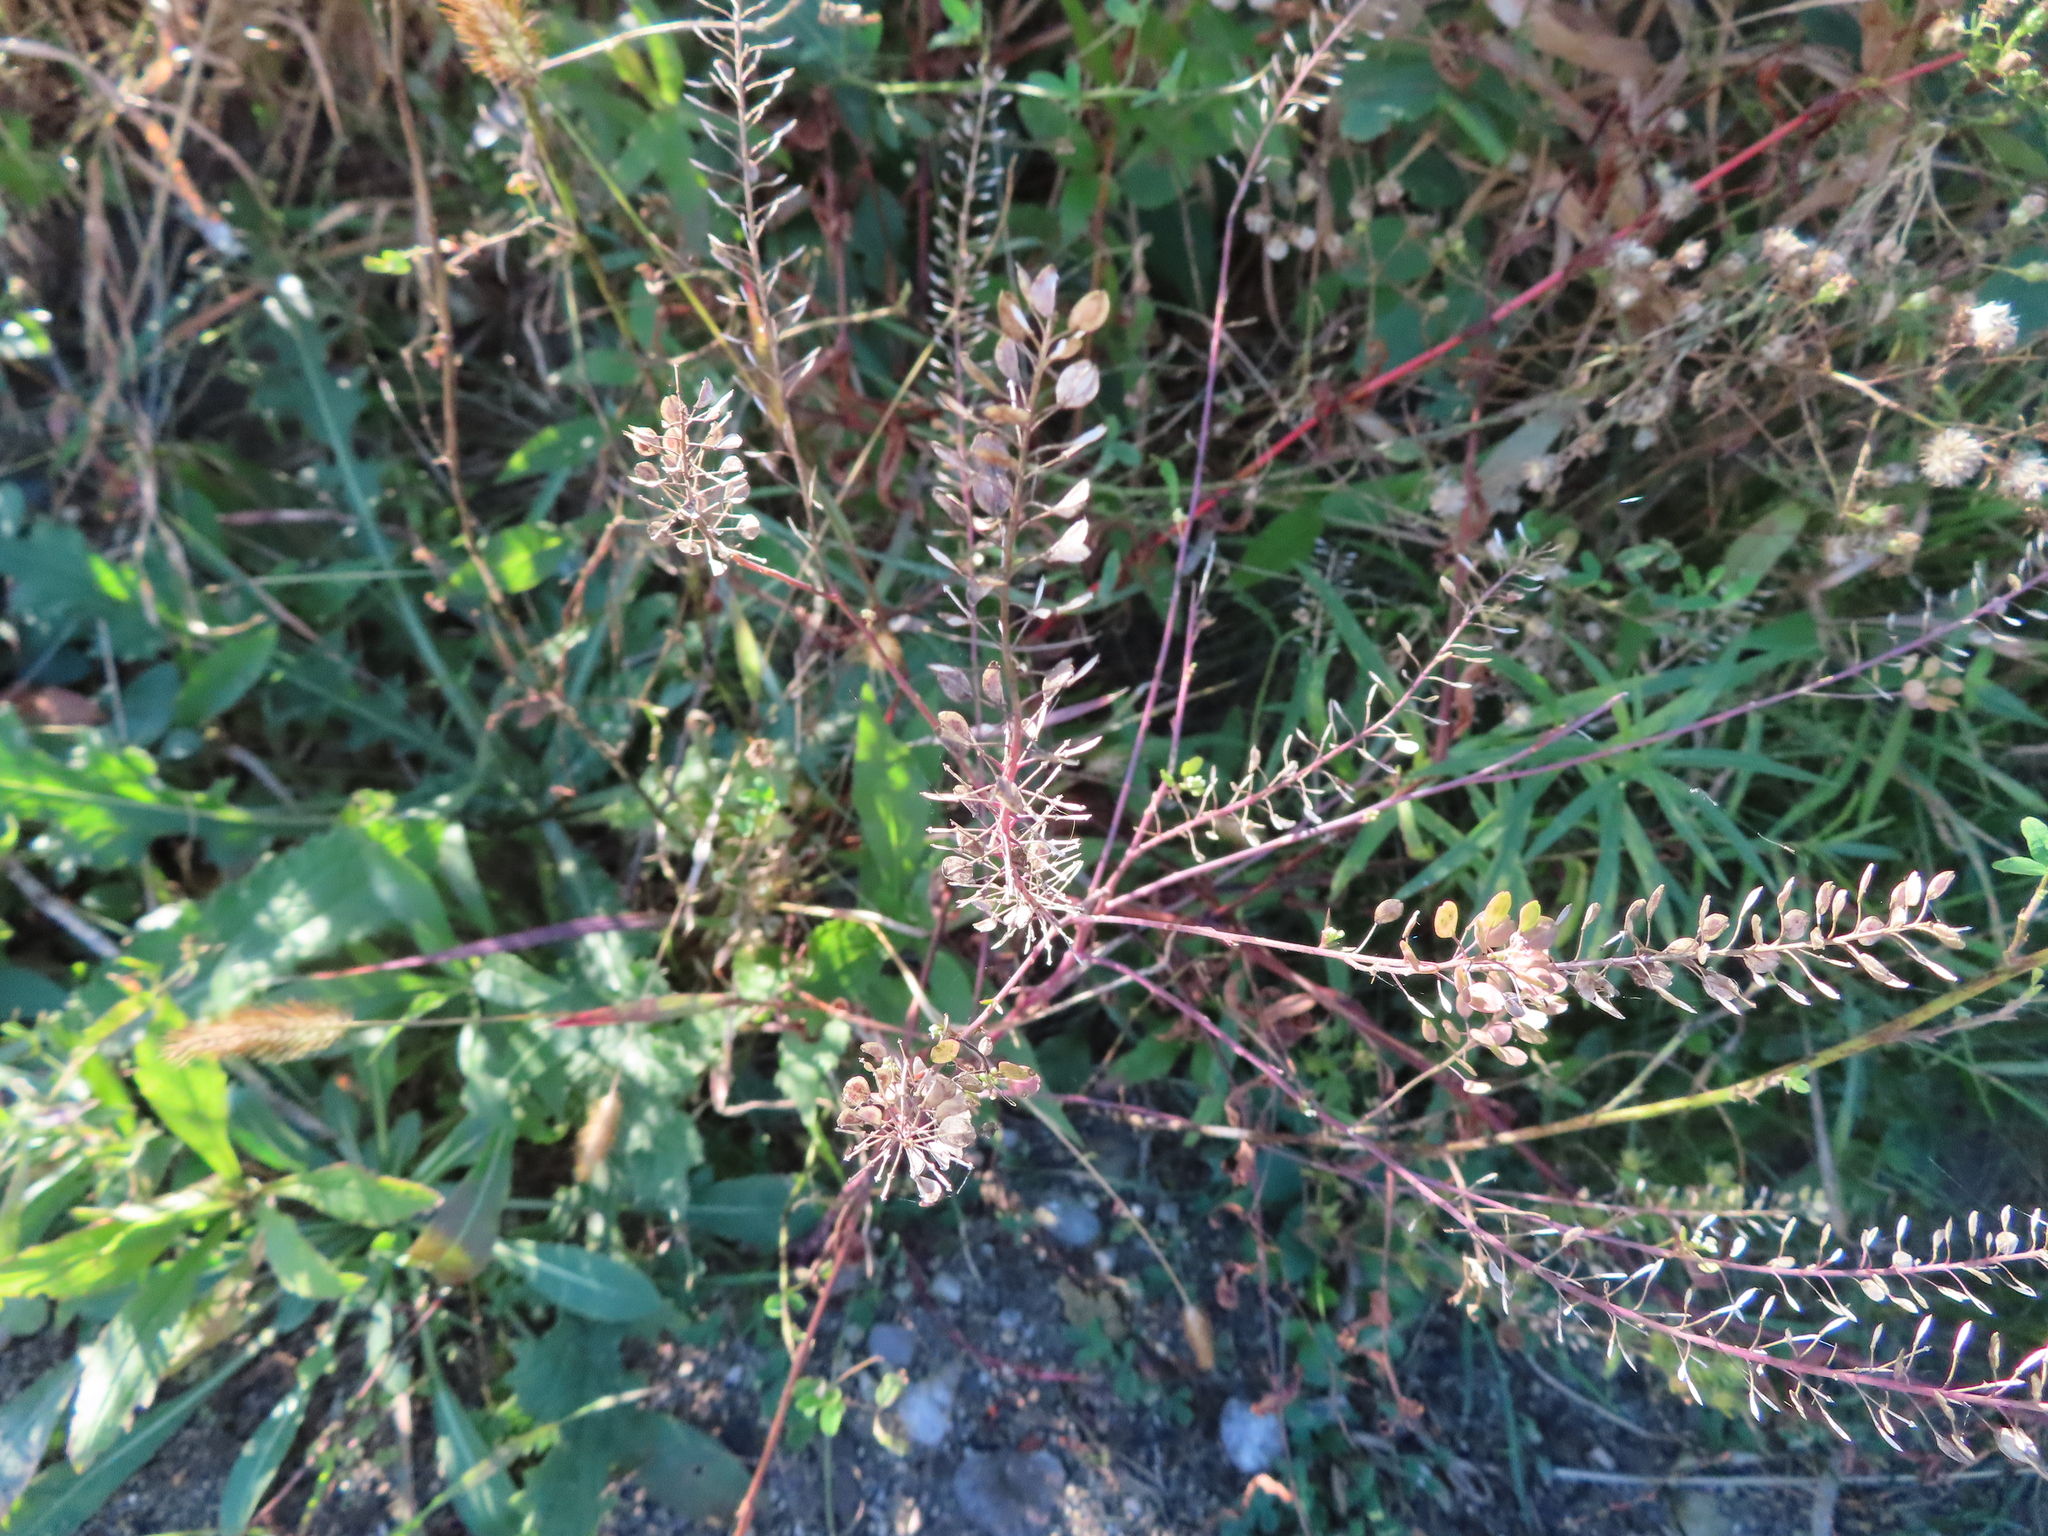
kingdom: Plantae
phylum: Tracheophyta
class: Magnoliopsida
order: Brassicales
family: Brassicaceae
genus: Lepidium
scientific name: Lepidium virginicum
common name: Least pepperwort
